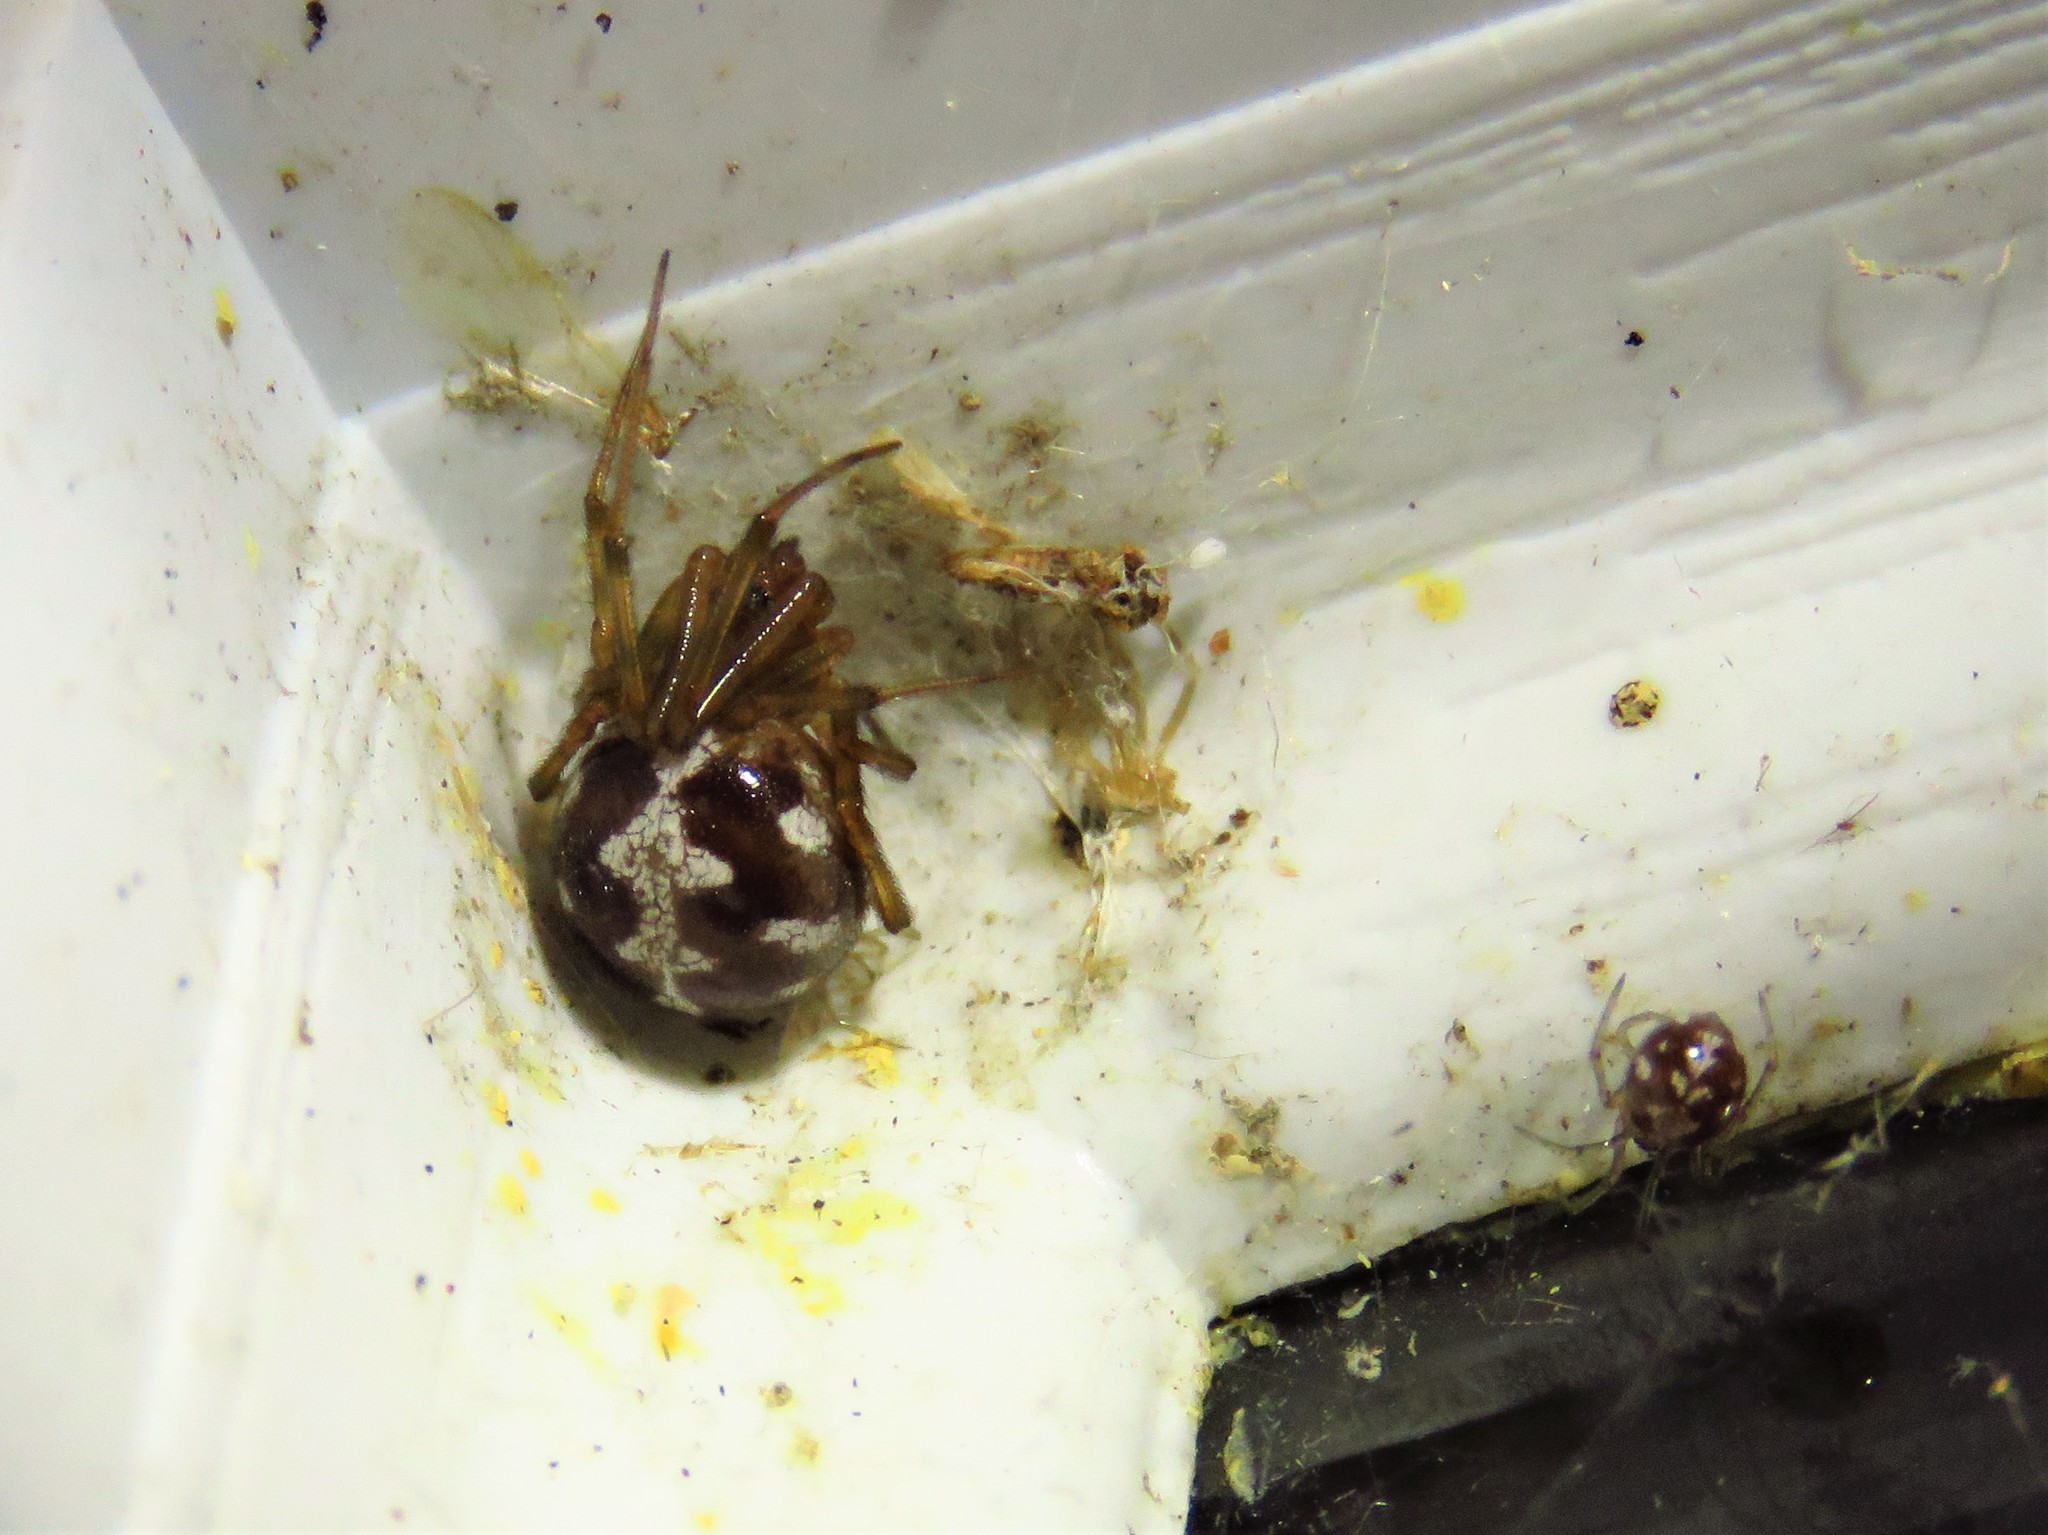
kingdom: Animalia
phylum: Arthropoda
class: Arachnida
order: Araneae
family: Theridiidae
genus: Steatoda
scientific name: Steatoda triangulosa
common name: Triangulate bud spider
